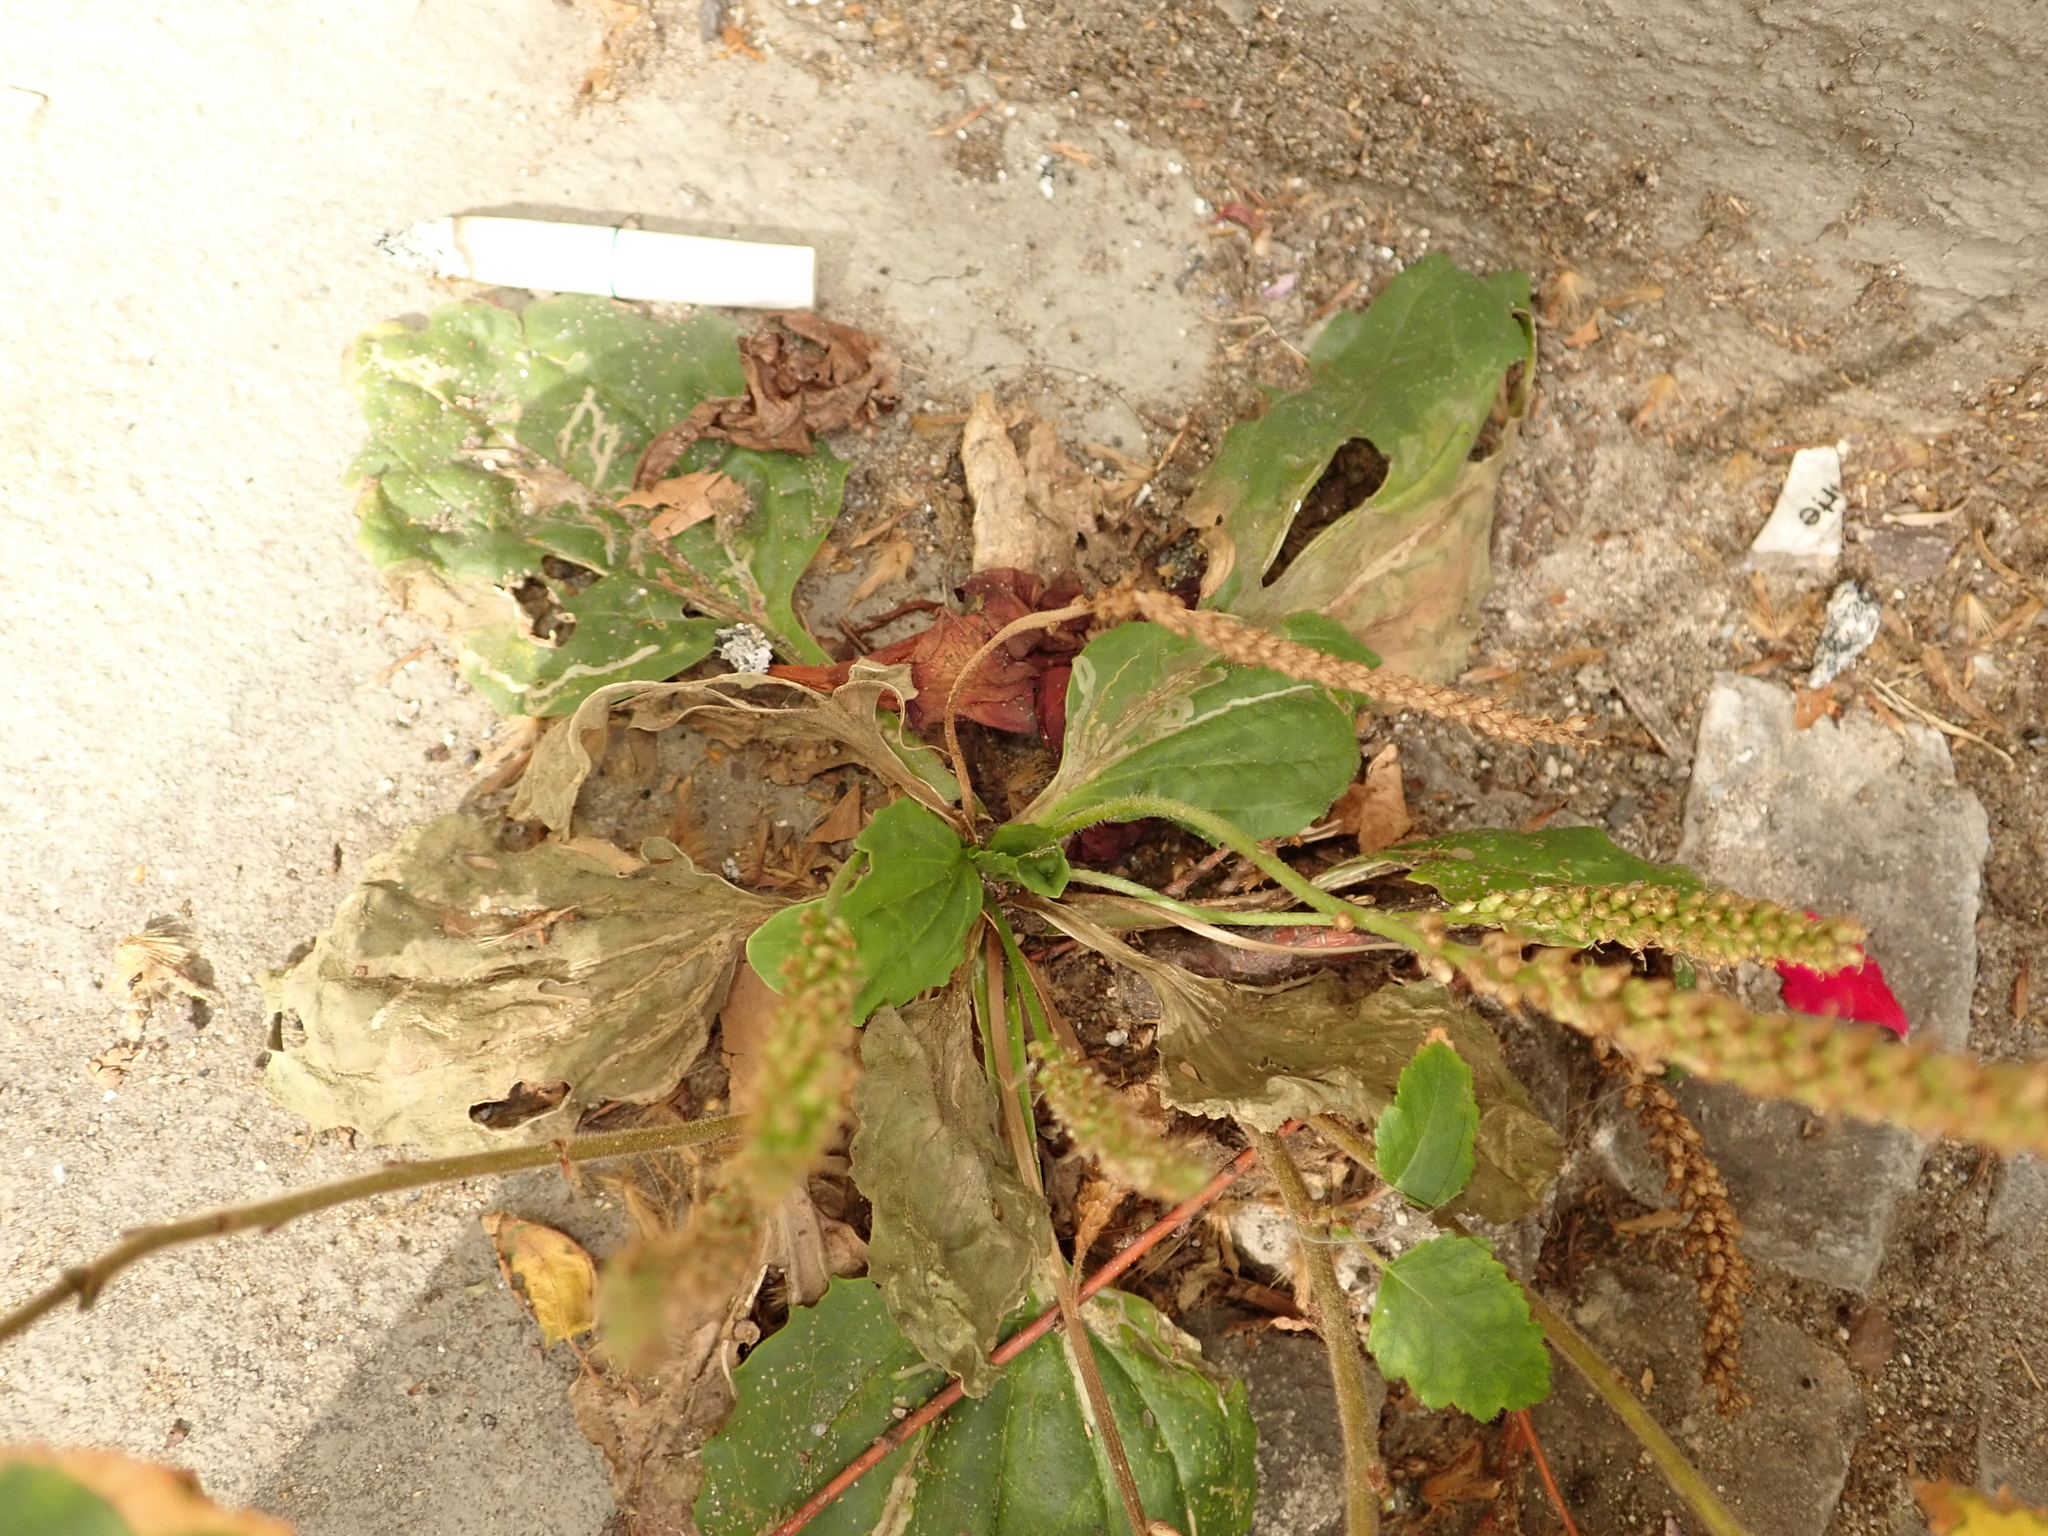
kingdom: Plantae
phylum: Tracheophyta
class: Magnoliopsida
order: Lamiales
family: Plantaginaceae
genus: Plantago
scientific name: Plantago major
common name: Common plantain
